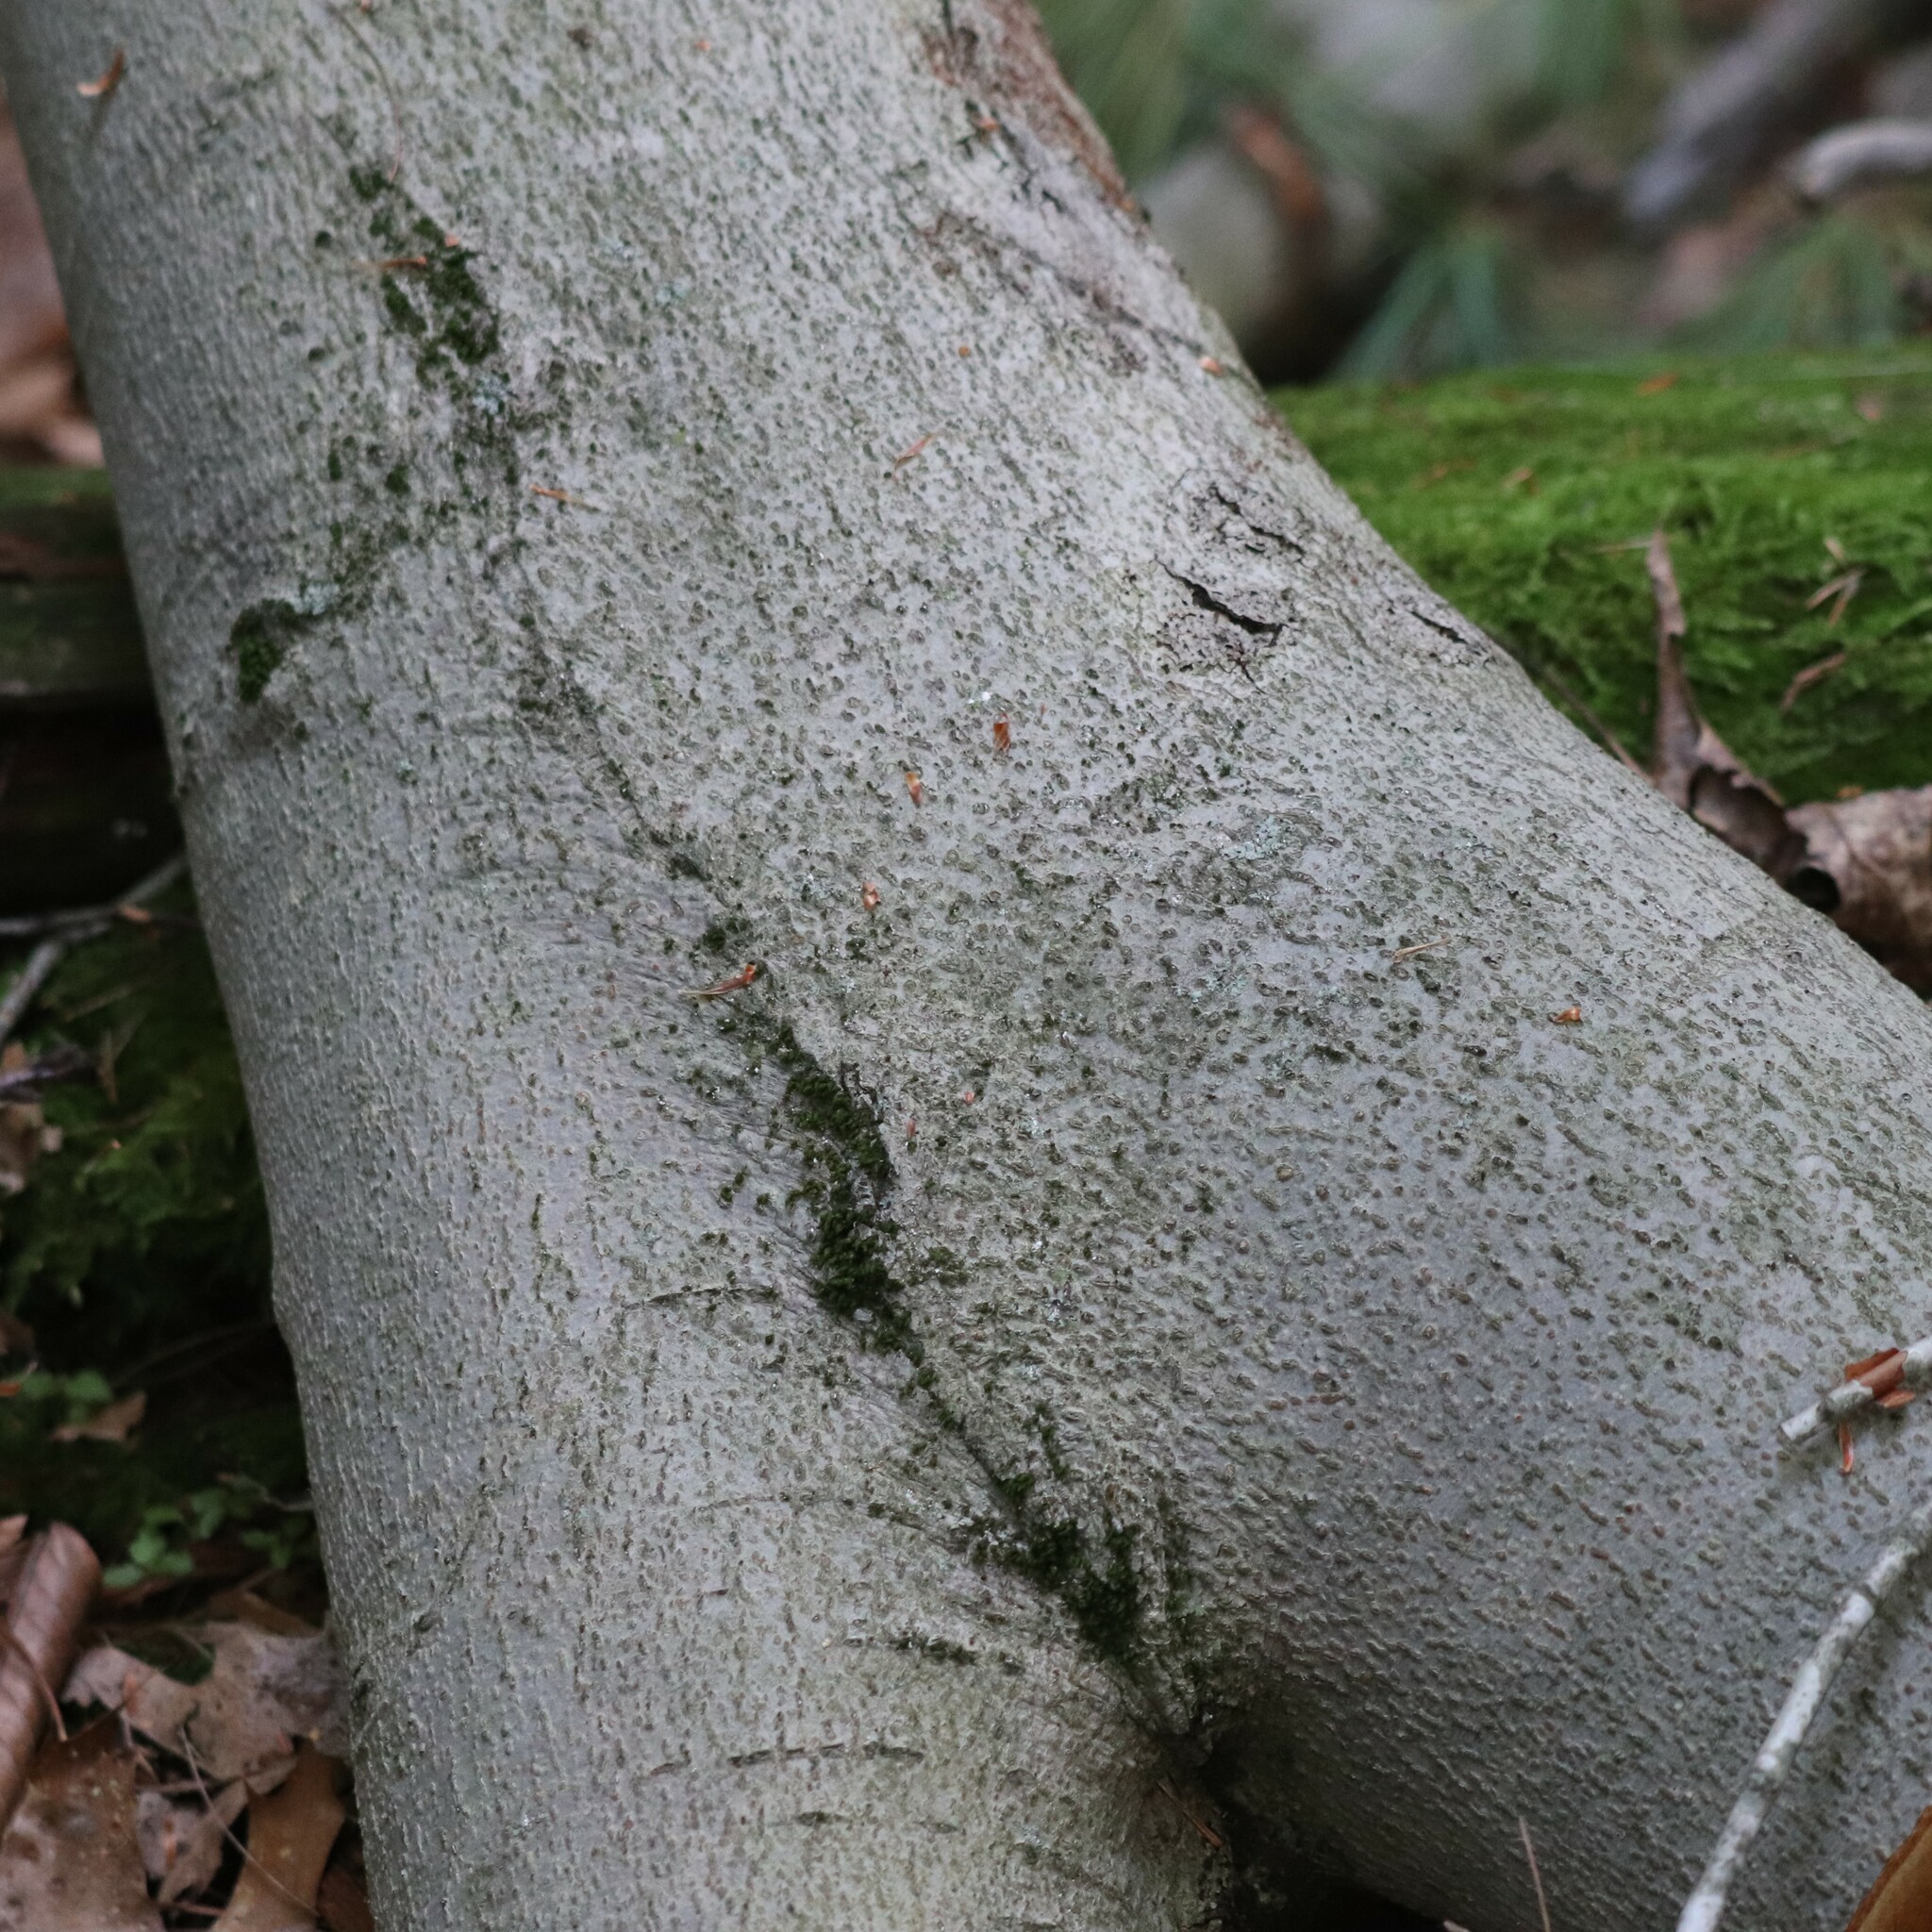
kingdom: Plantae
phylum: Tracheophyta
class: Magnoliopsida
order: Fagales
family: Fagaceae
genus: Fagus
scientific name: Fagus grandifolia
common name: American beech
